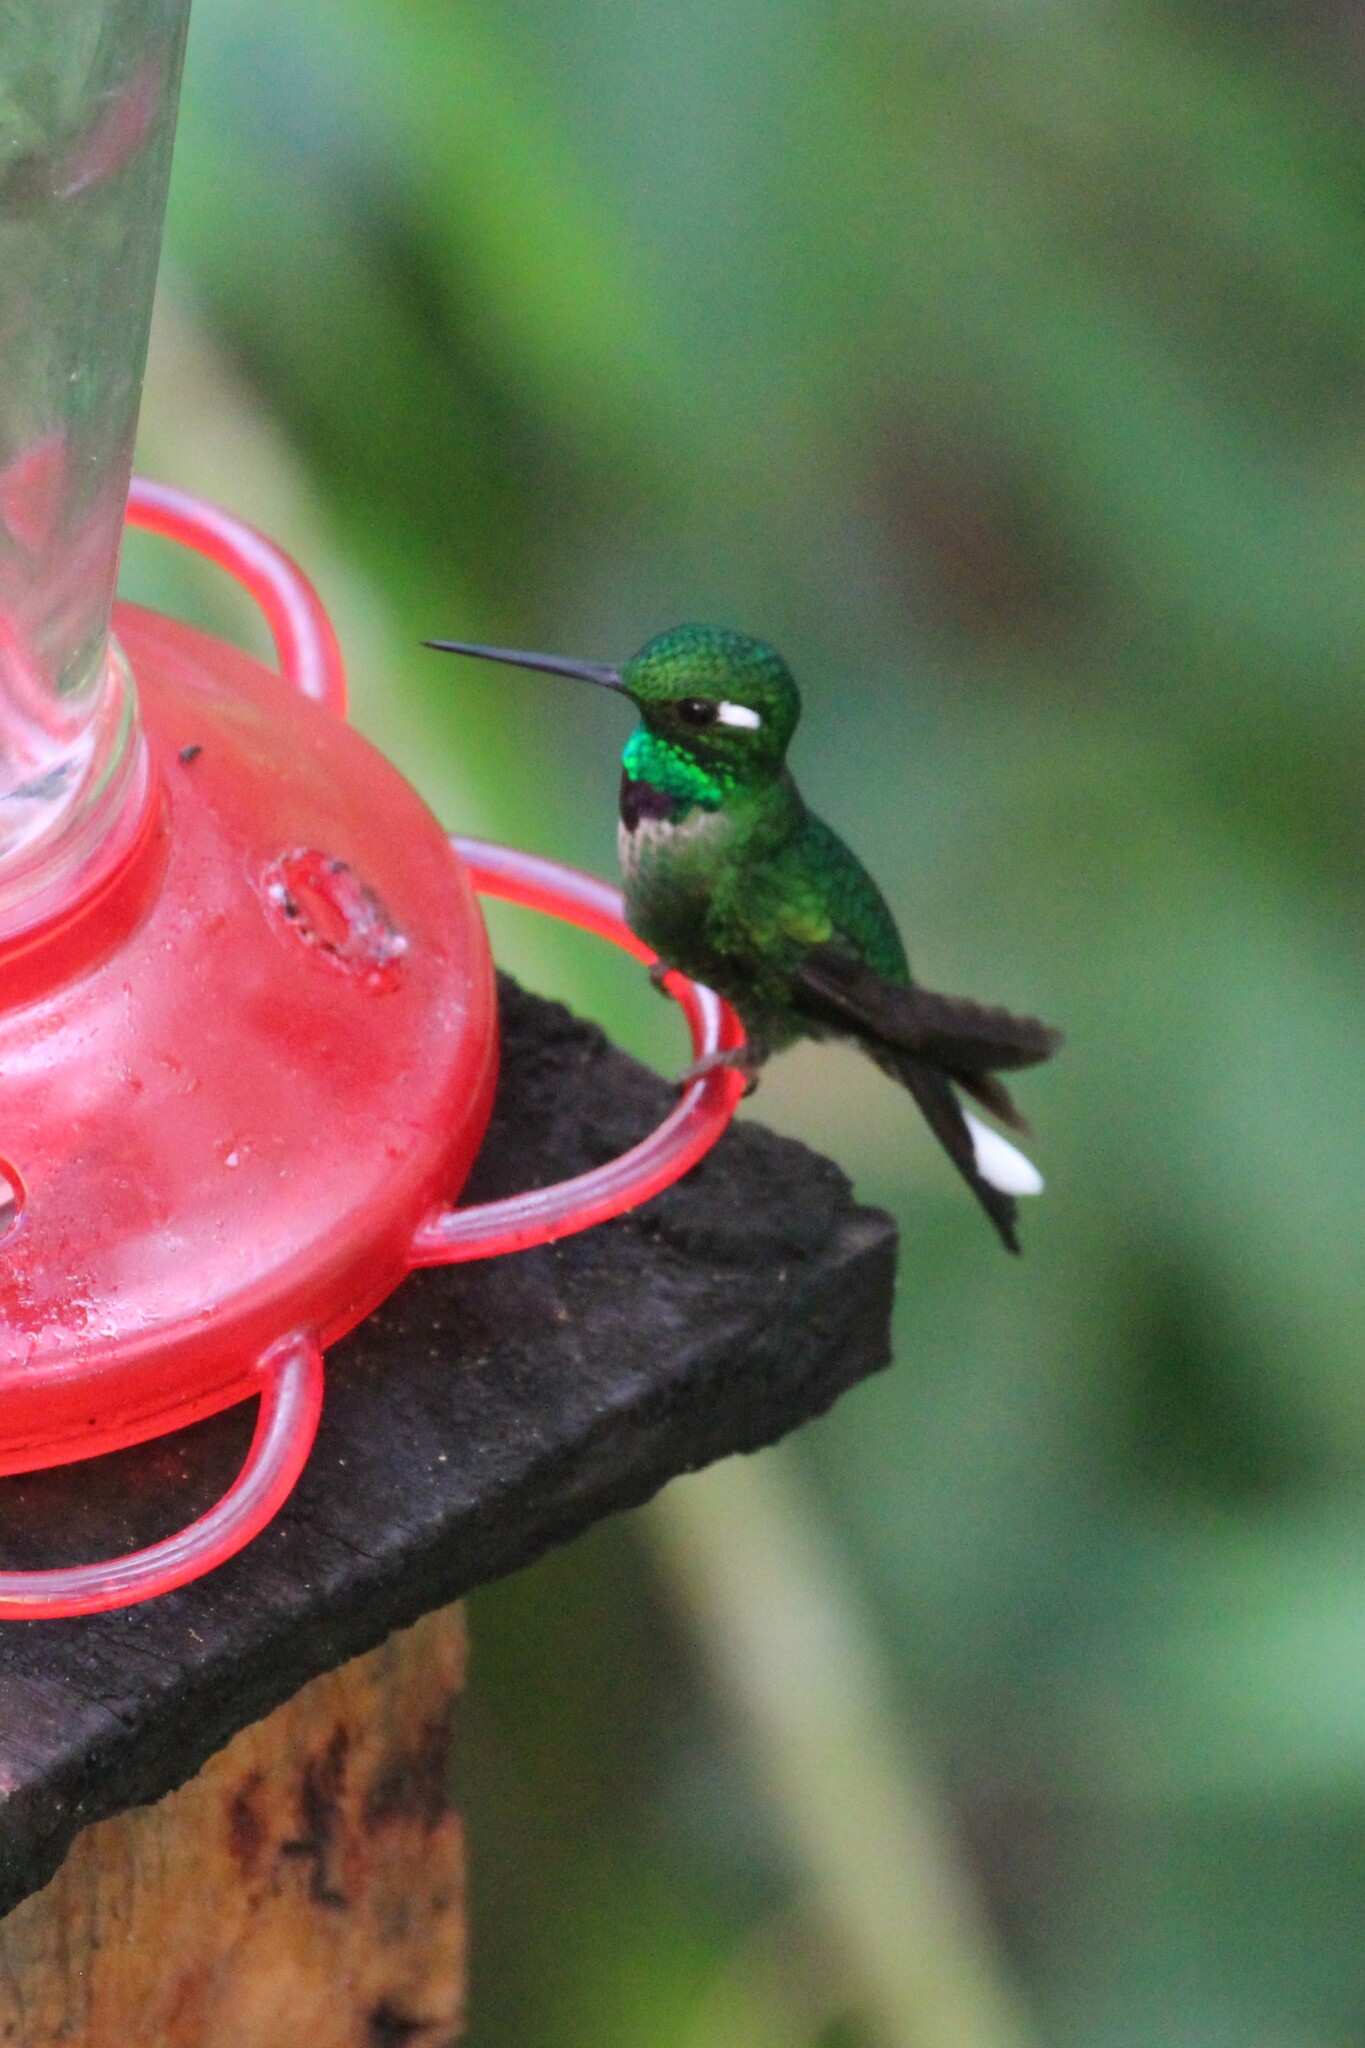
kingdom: Animalia
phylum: Chordata
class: Aves
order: Apodiformes
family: Trochilidae
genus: Urosticte
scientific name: Urosticte benjamini
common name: Purple-bibbed whitetip
